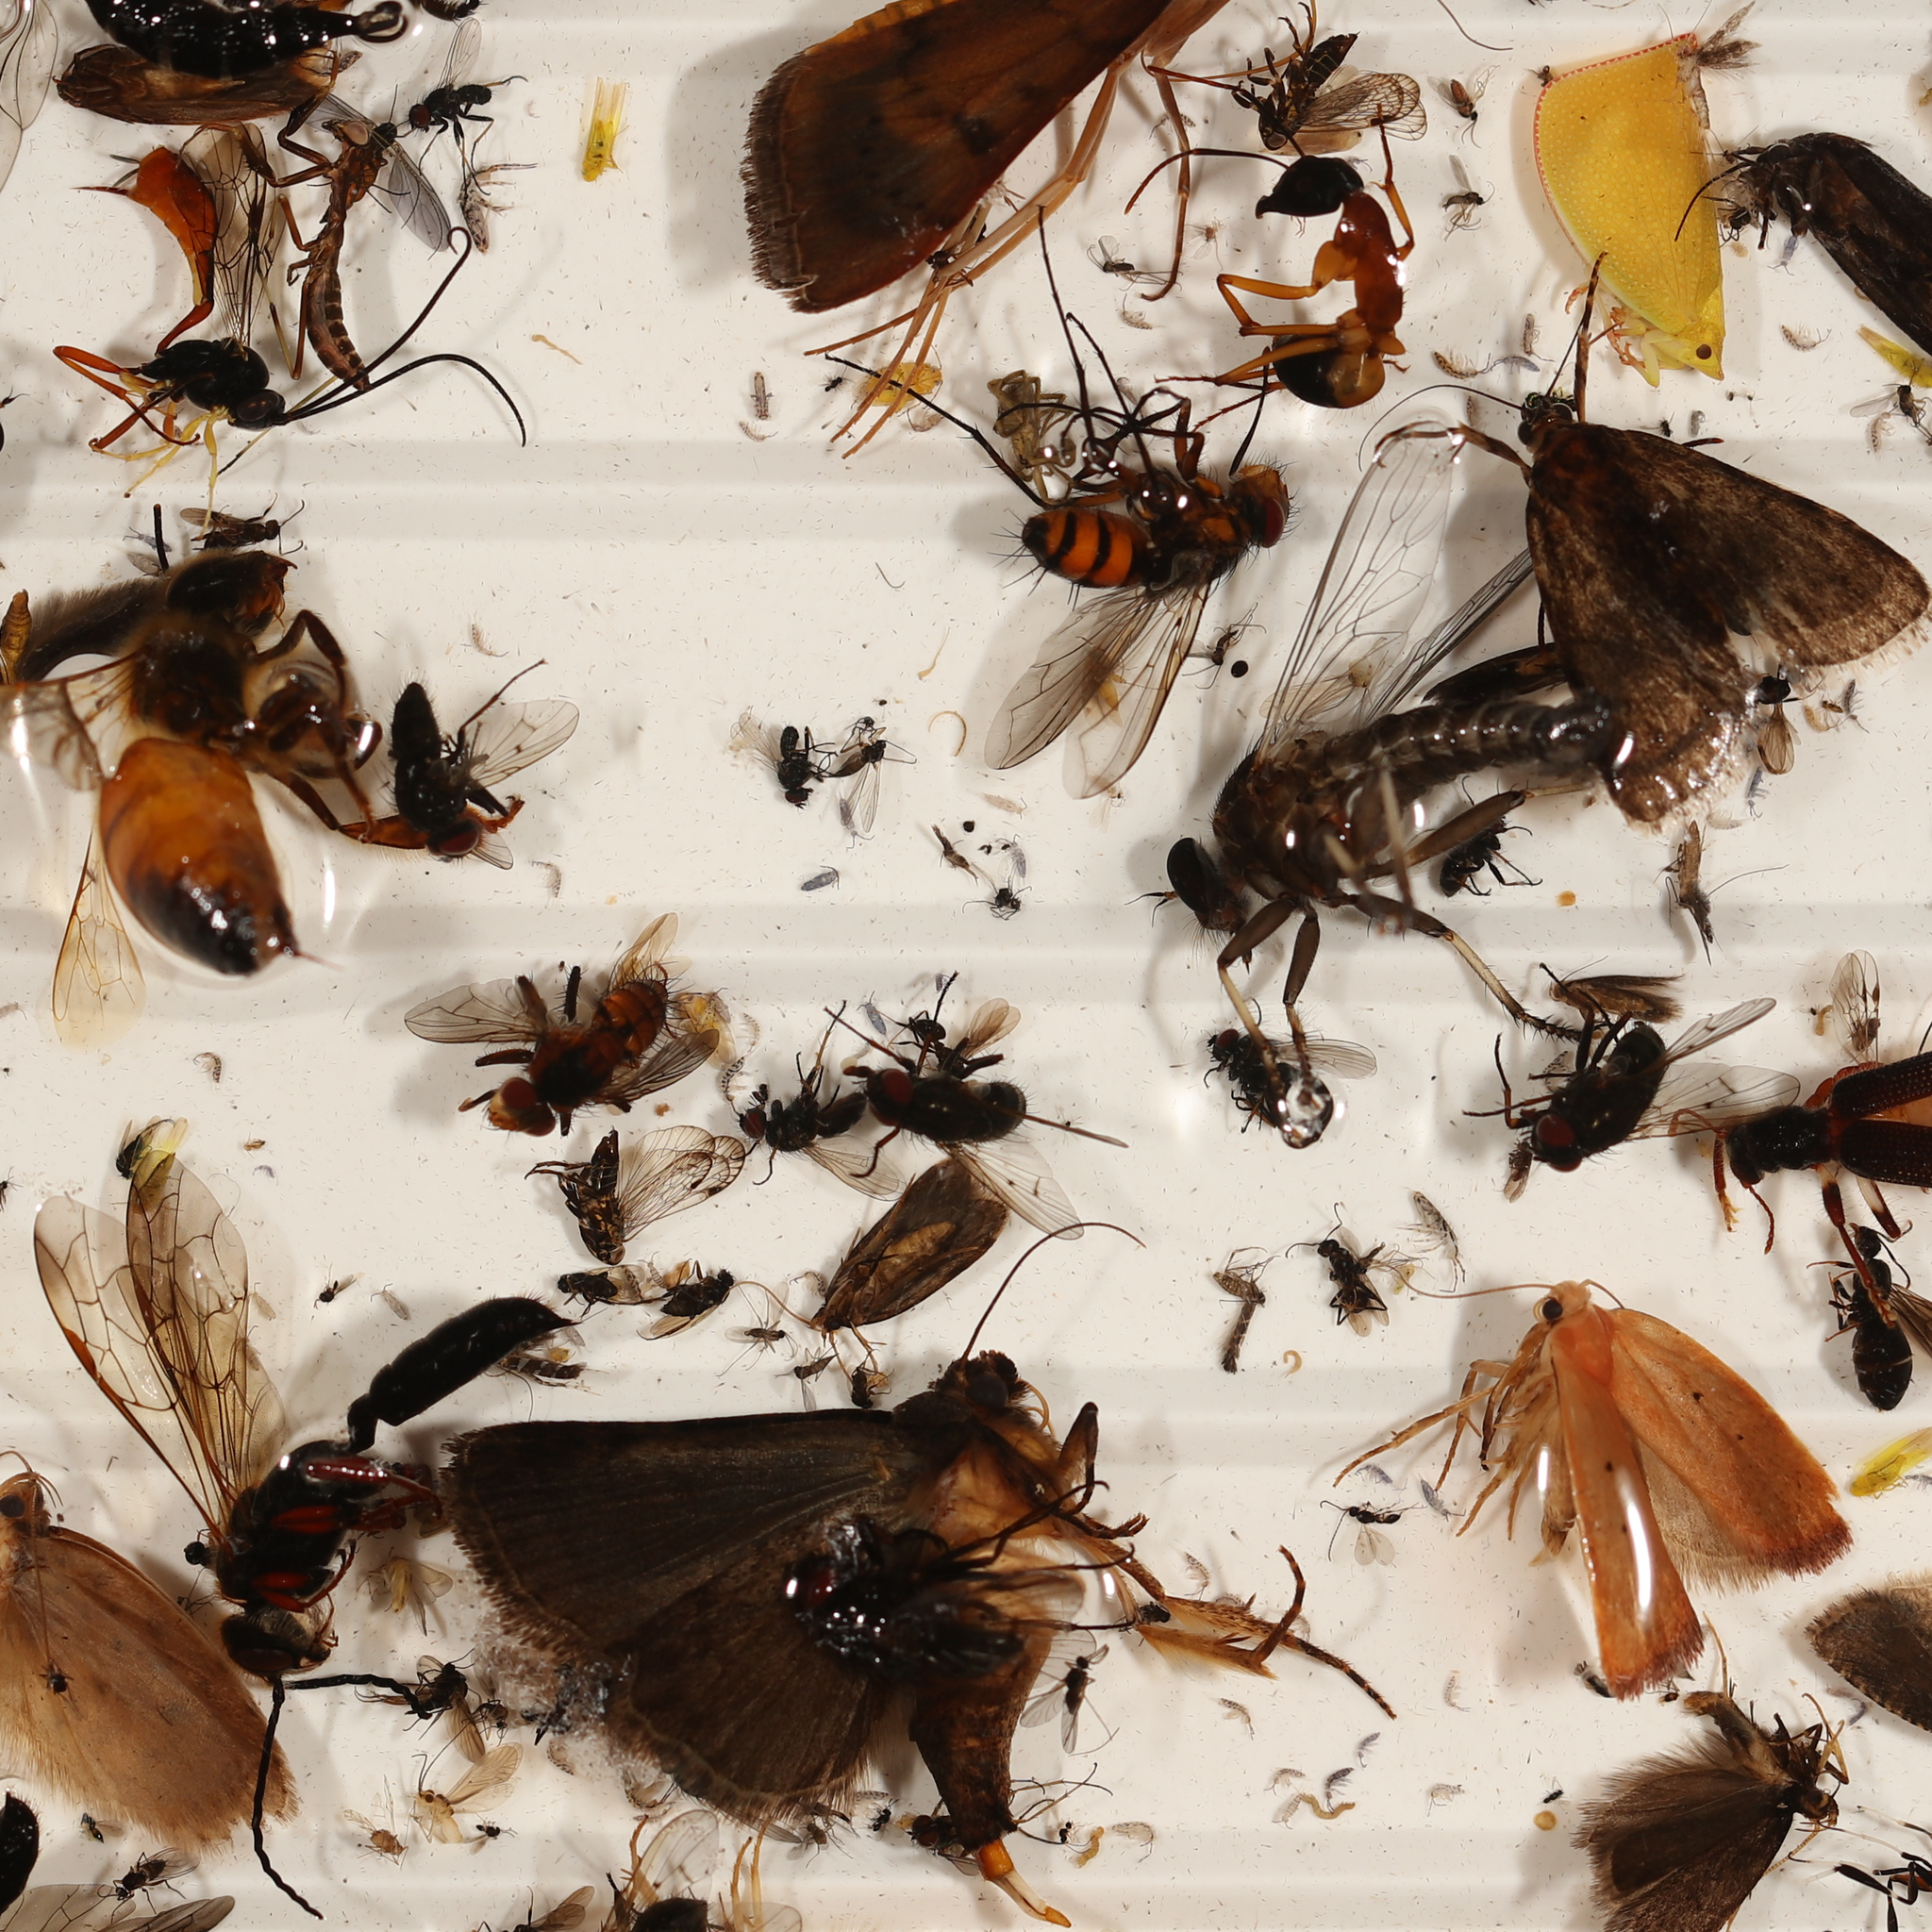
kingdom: Animalia
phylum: Arthropoda
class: Insecta
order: Hymenoptera
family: Apidae
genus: Apis
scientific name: Apis mellifera
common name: Honey bee
